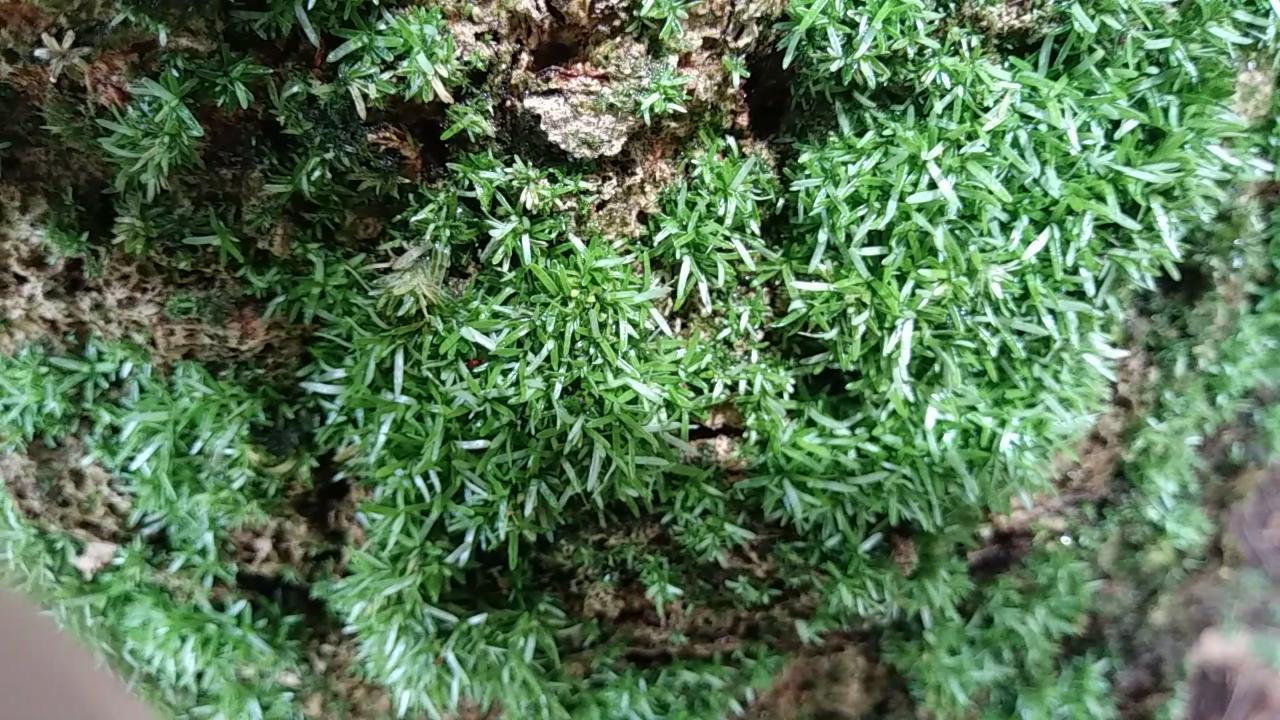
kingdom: Plantae
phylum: Bryophyta
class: Bryopsida
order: Dicranales
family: Octoblepharaceae
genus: Octoblepharum
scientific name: Octoblepharum albidum
